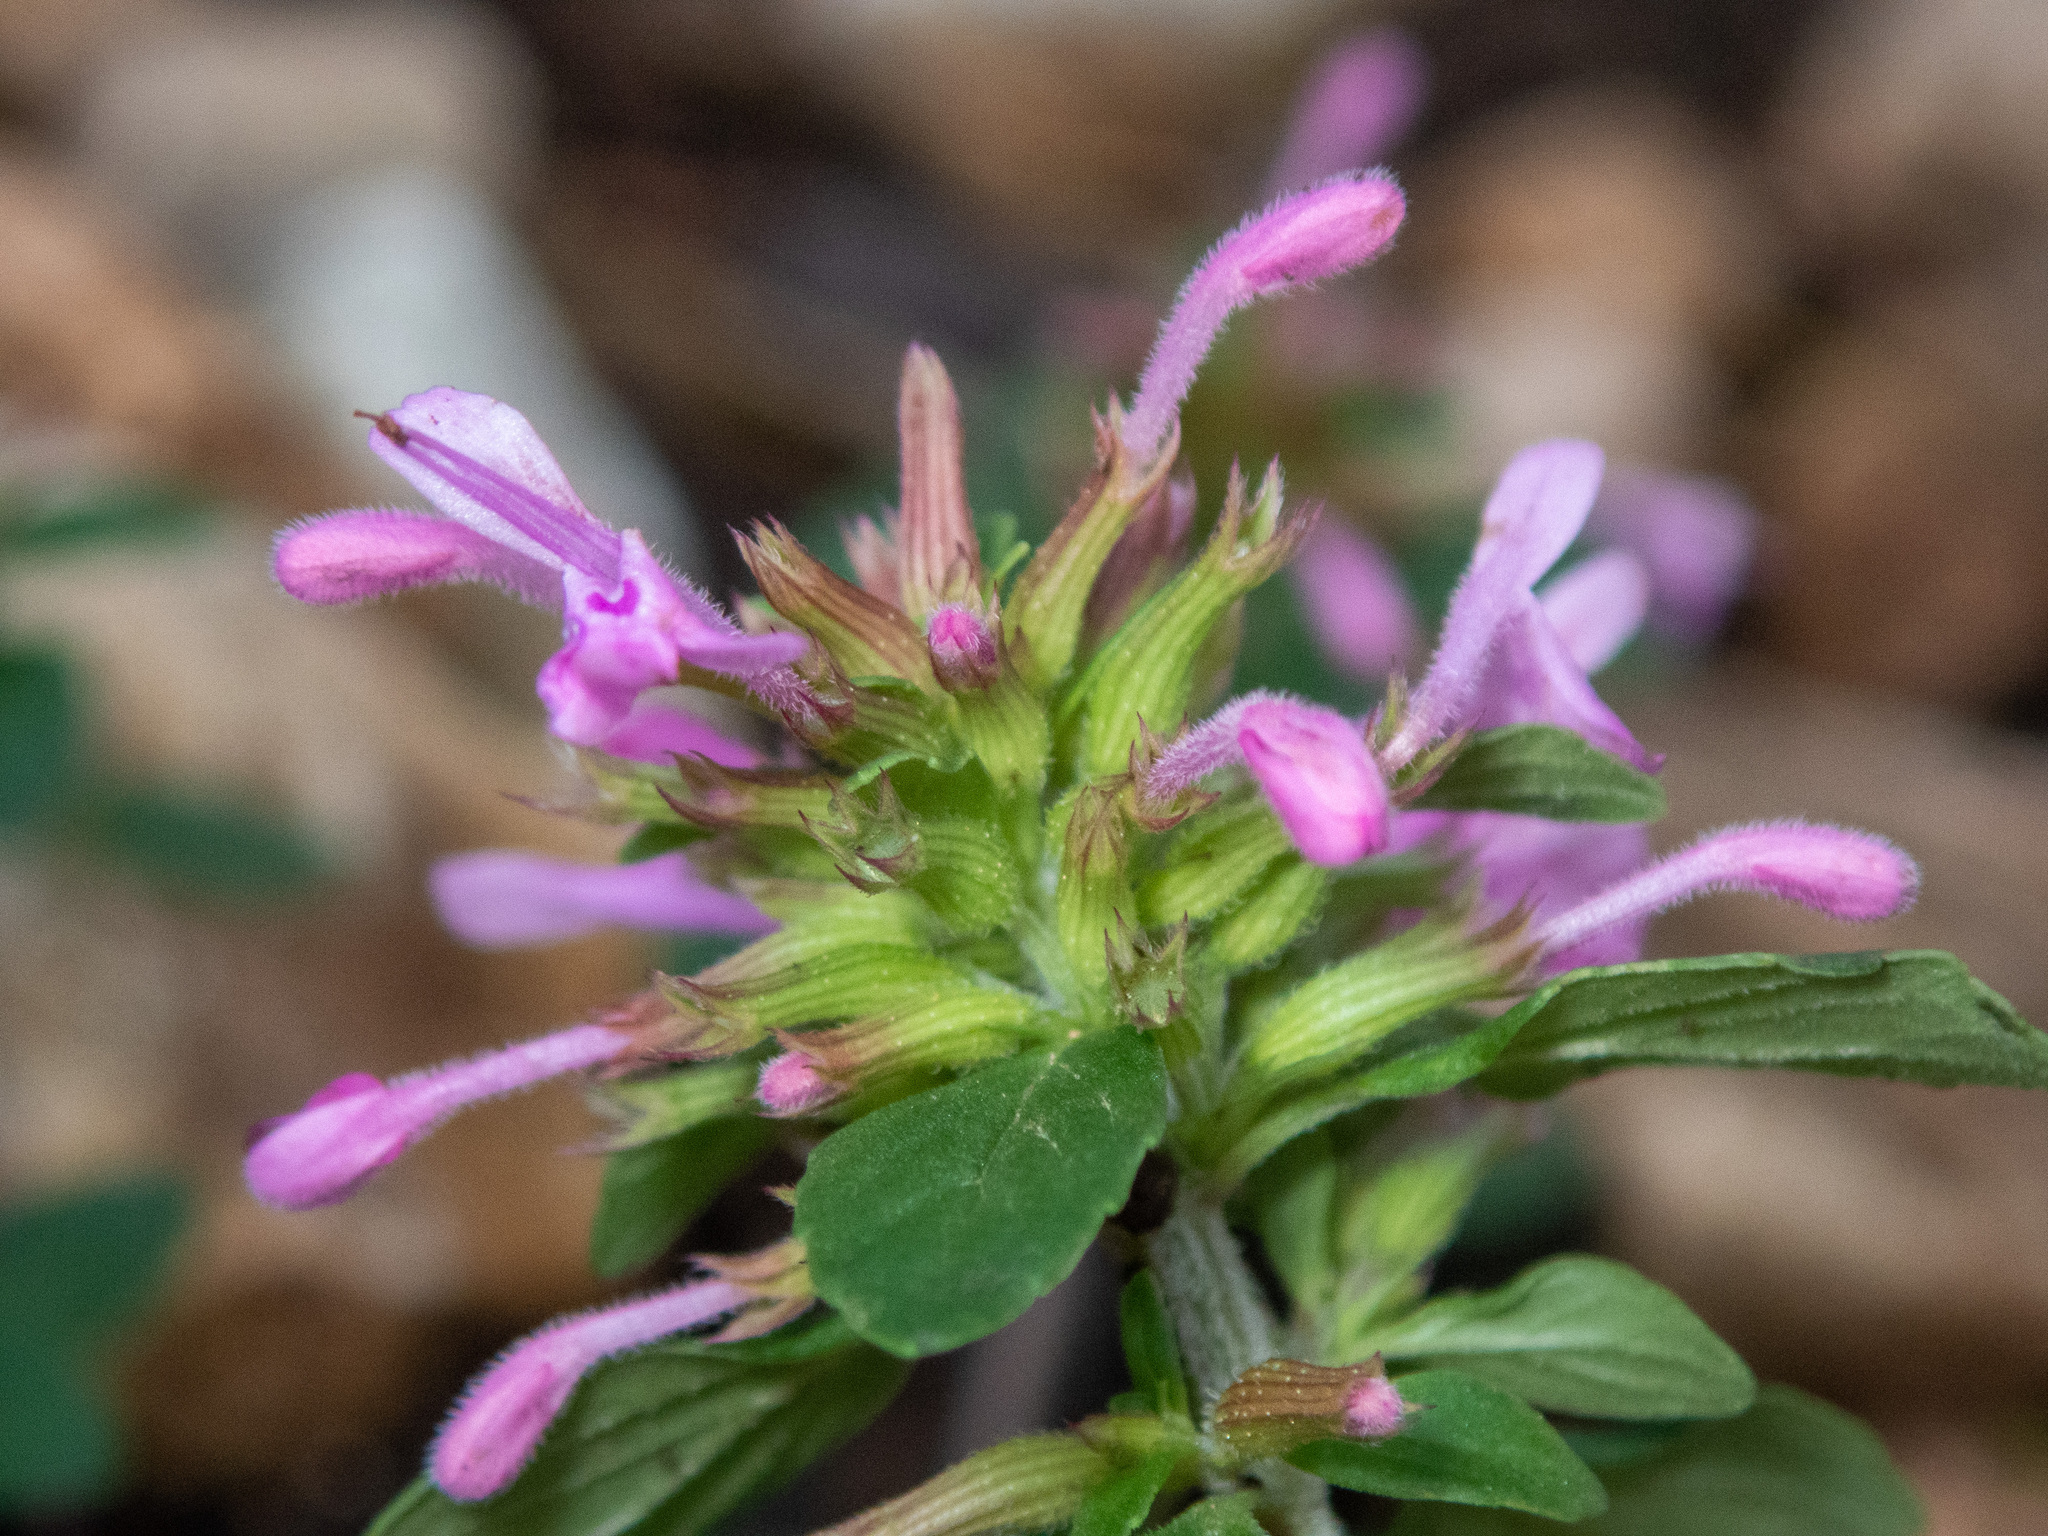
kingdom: Plantae
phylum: Tracheophyta
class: Magnoliopsida
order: Lamiales
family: Lamiaceae
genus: Hedeoma
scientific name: Hedeoma acinoides
